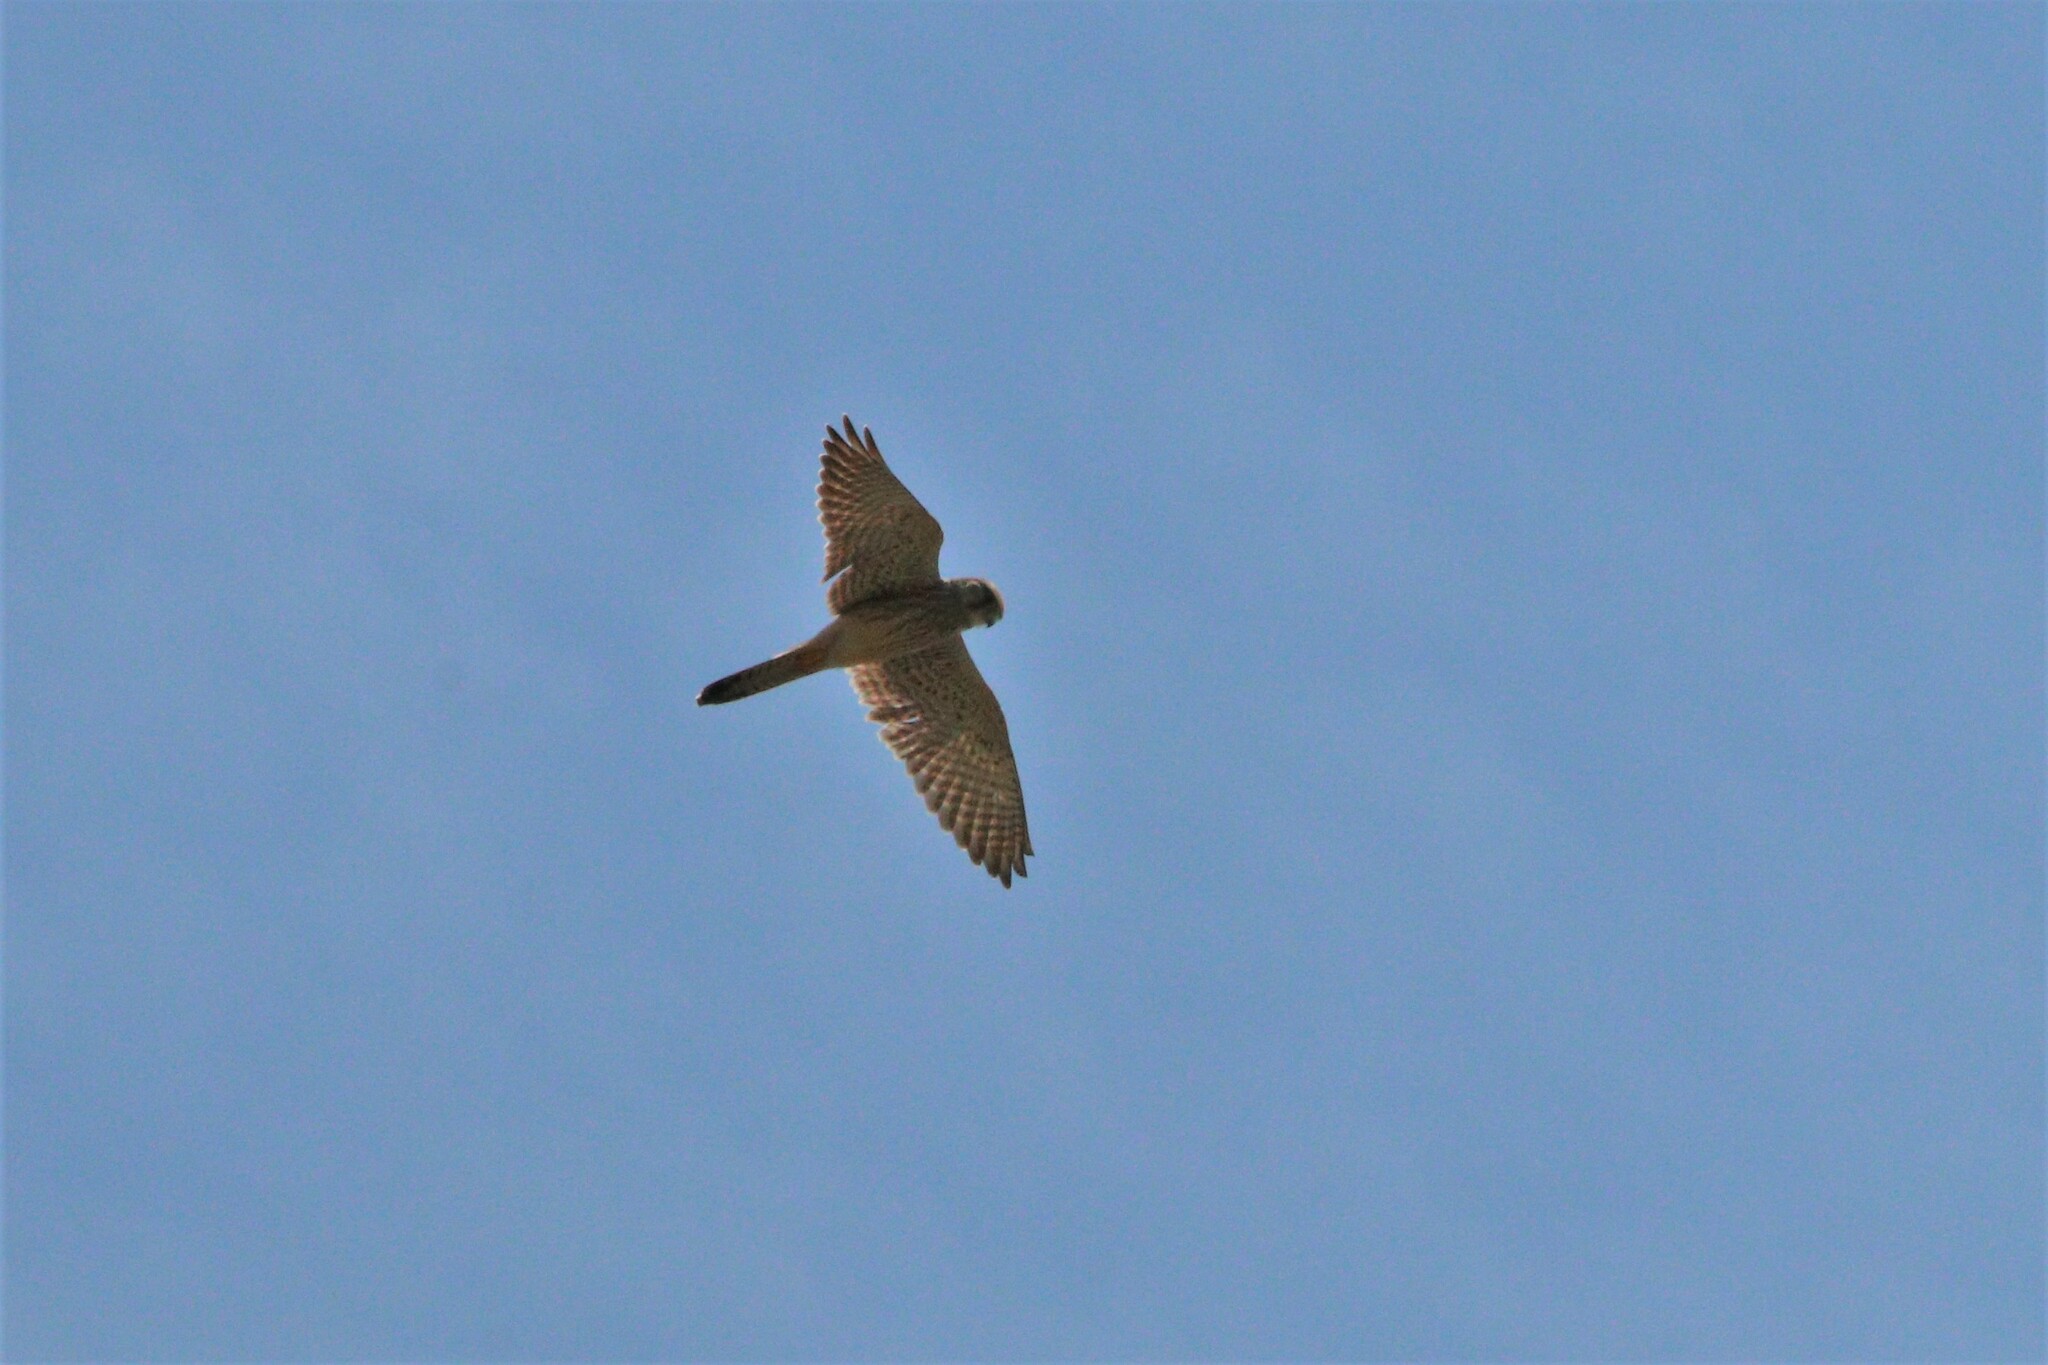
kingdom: Animalia
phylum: Chordata
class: Aves
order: Falconiformes
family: Falconidae
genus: Falco
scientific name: Falco tinnunculus
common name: Common kestrel
